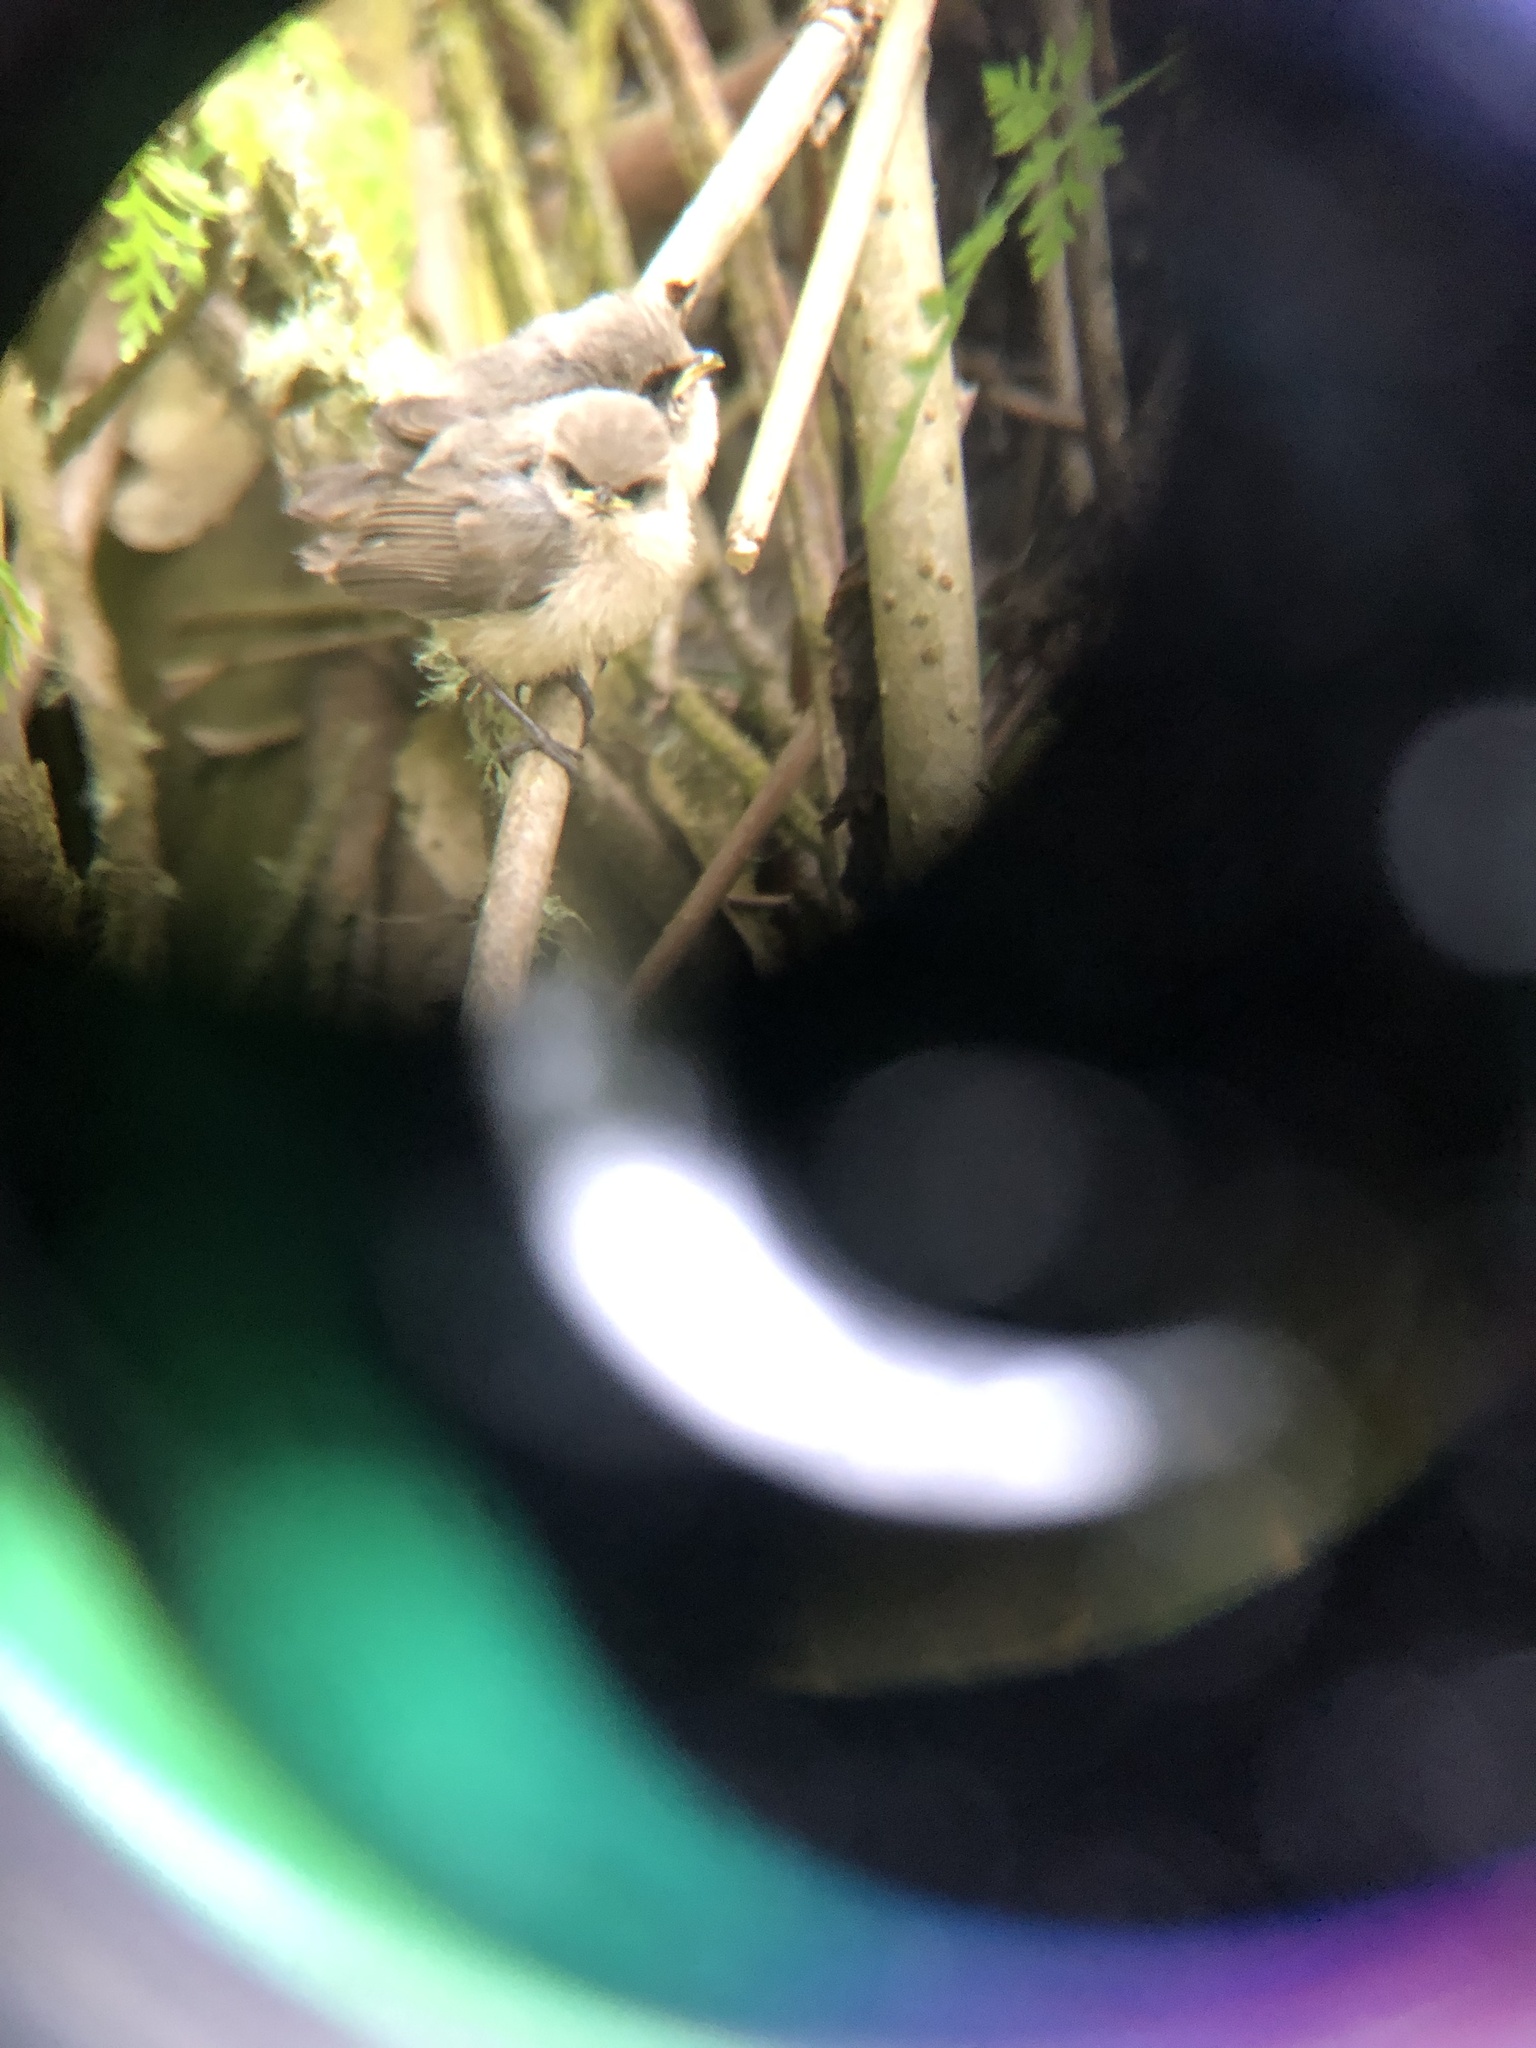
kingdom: Animalia
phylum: Chordata
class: Aves
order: Passeriformes
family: Aegithalidae
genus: Psaltriparus
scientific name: Psaltriparus minimus
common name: American bushtit
